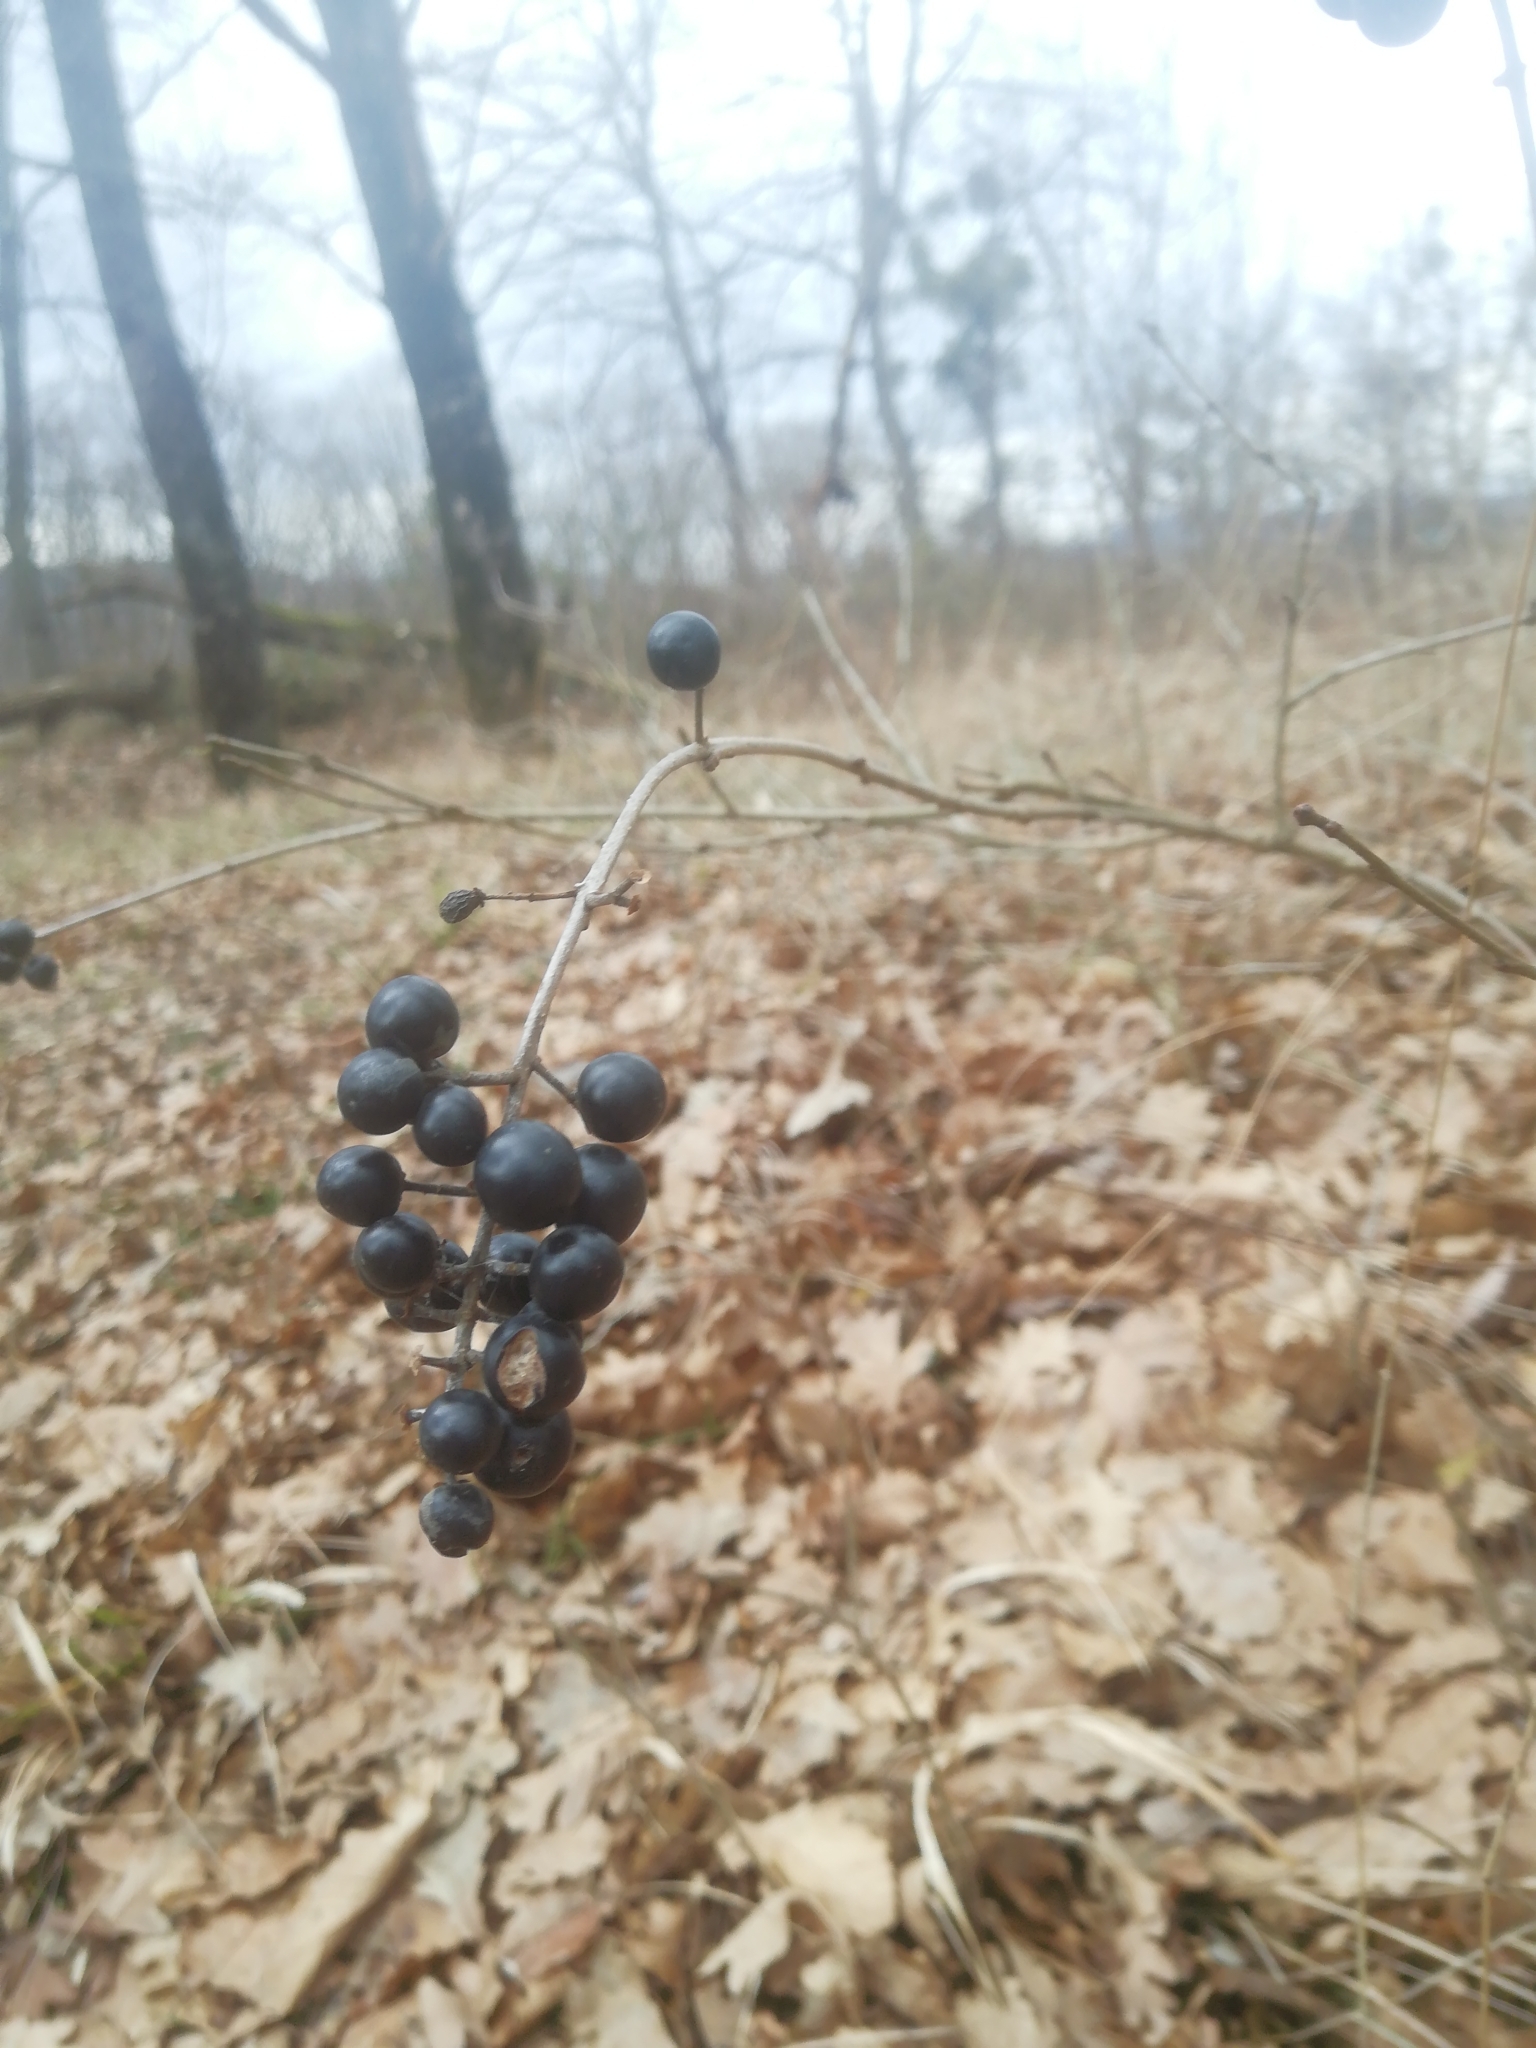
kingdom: Plantae
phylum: Tracheophyta
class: Magnoliopsida
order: Lamiales
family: Oleaceae
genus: Ligustrum
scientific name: Ligustrum vulgare
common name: Wild privet
